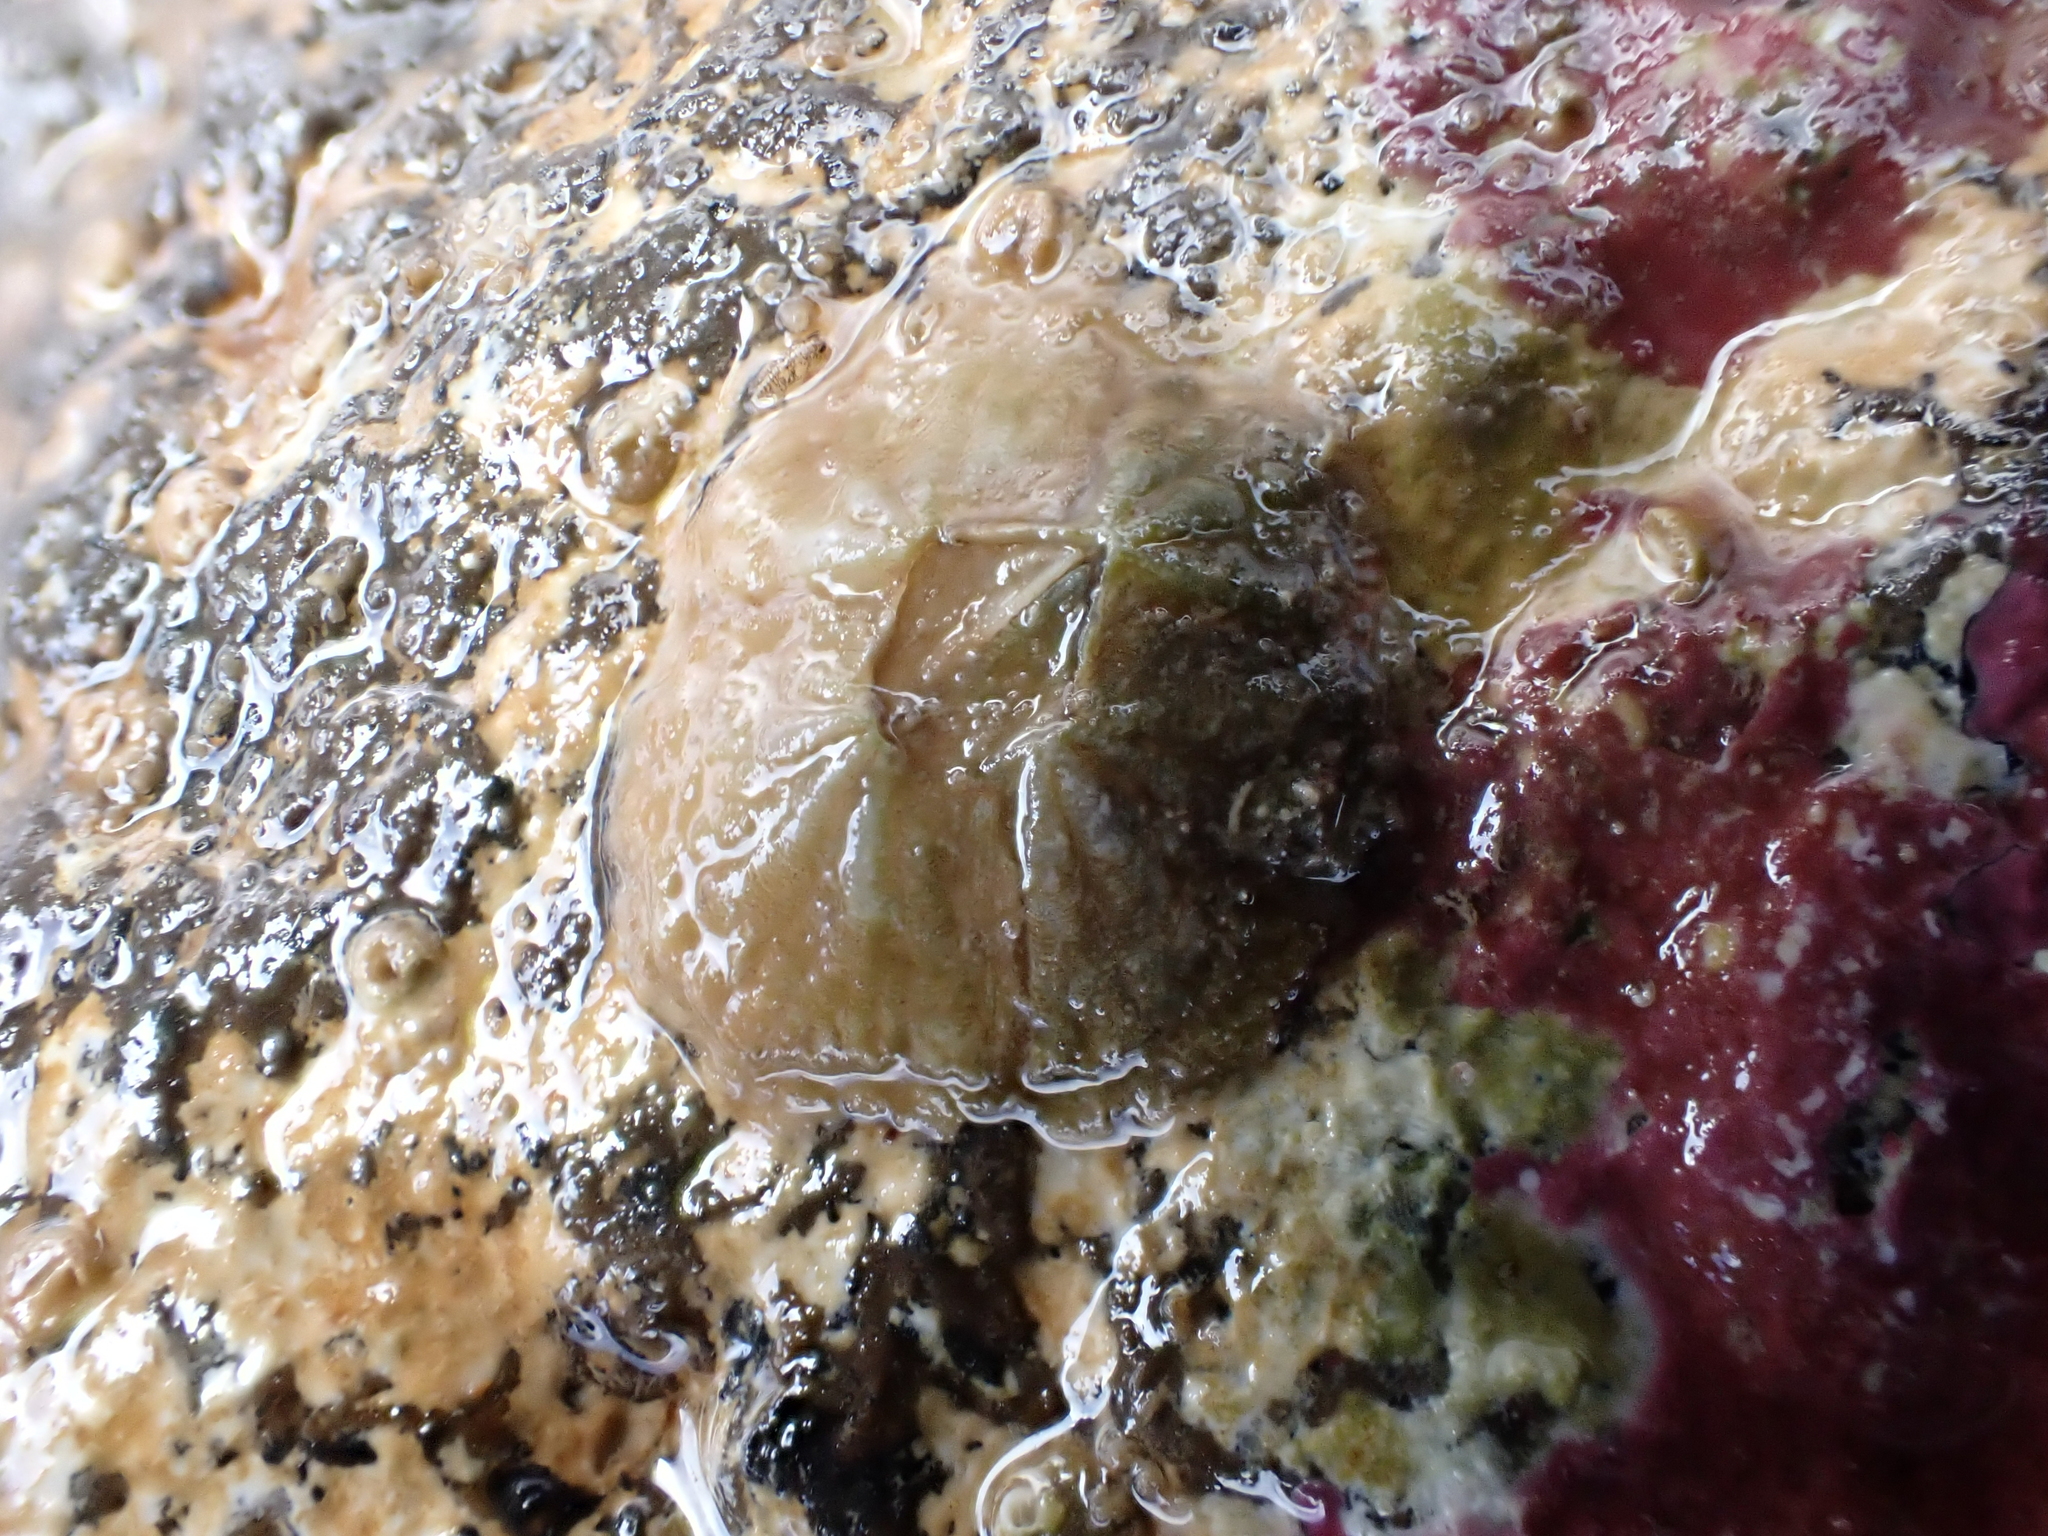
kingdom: Animalia
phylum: Arthropoda
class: Maxillopoda
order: Sessilia
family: Tetraclitidae
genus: Tetraclitella
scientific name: Tetraclitella depressa
